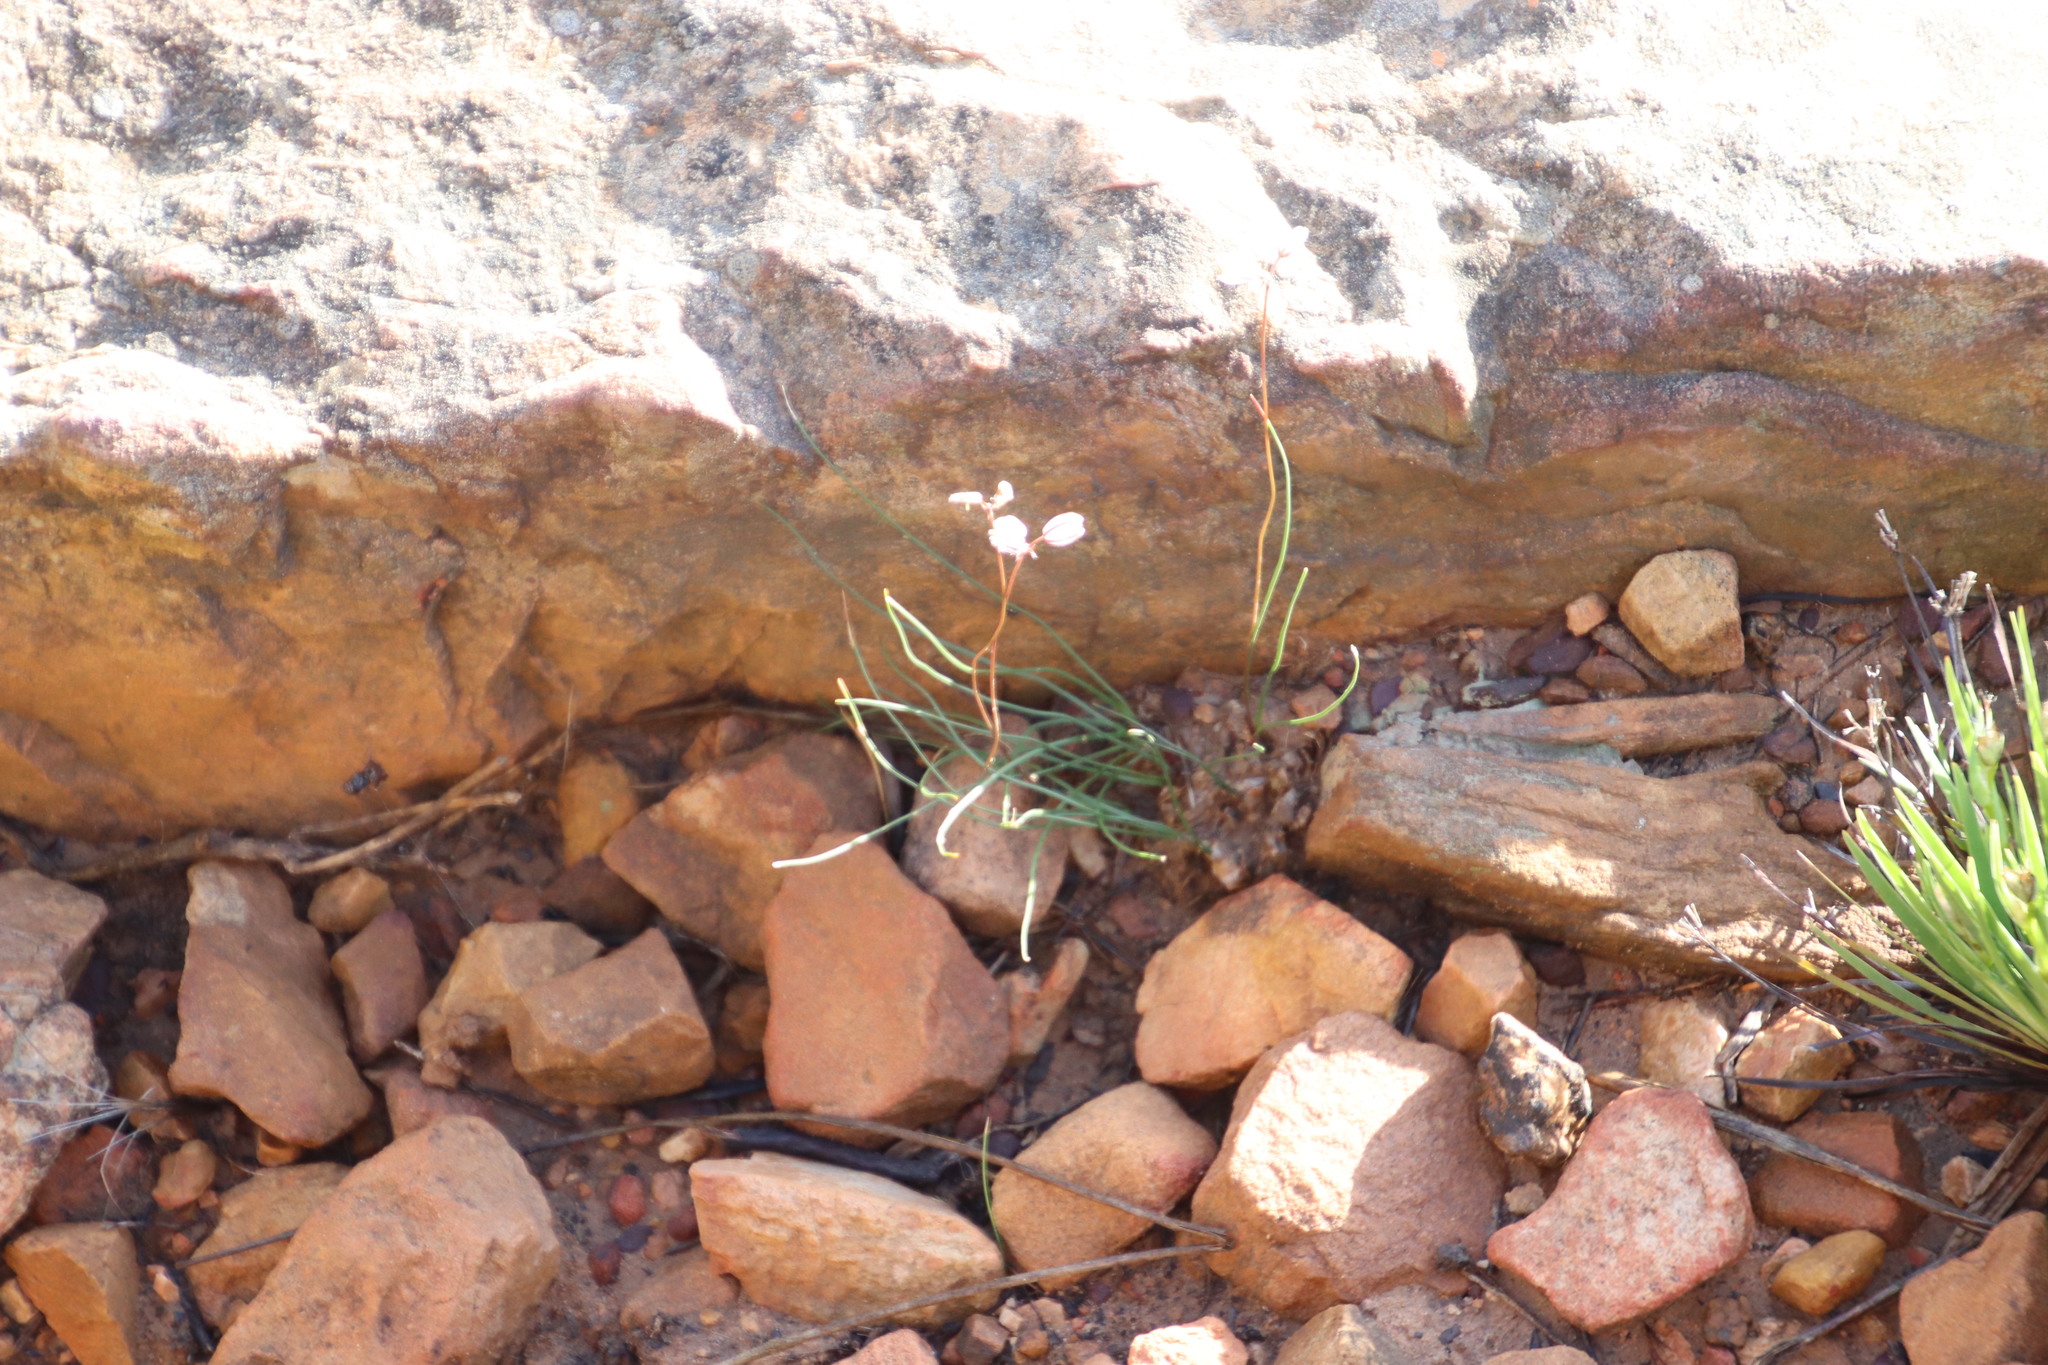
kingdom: Plantae
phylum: Tracheophyta
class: Liliopsida
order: Asparagales
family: Asparagaceae
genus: Drimia
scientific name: Drimia exuviata
